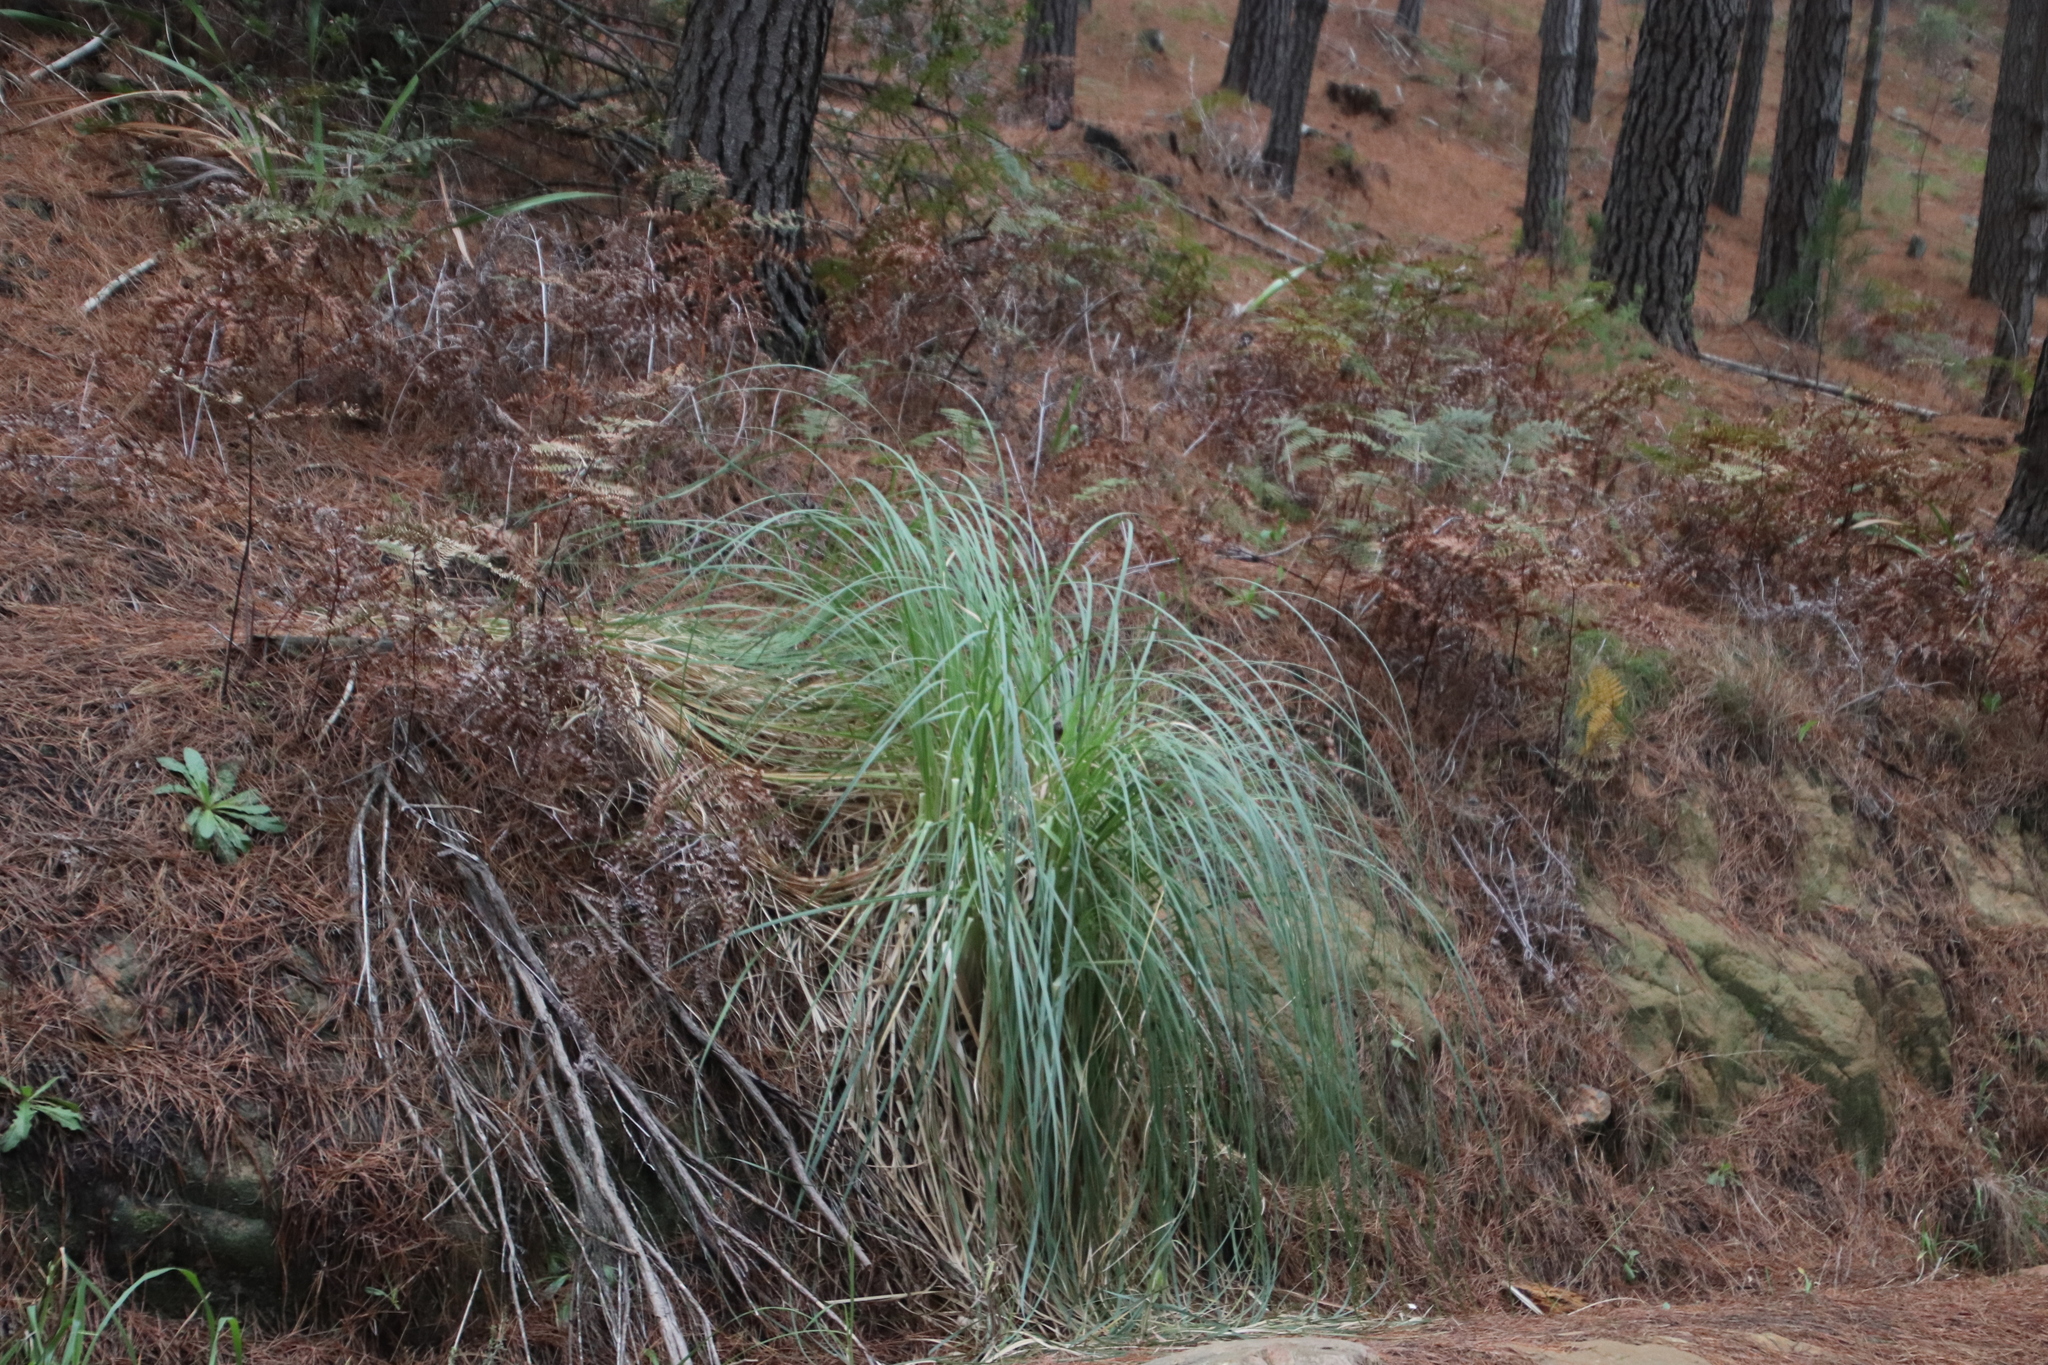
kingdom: Plantae
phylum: Tracheophyta
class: Liliopsida
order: Poales
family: Poaceae
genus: Cortaderia
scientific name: Cortaderia selloana
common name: Uruguayan pampas grass
